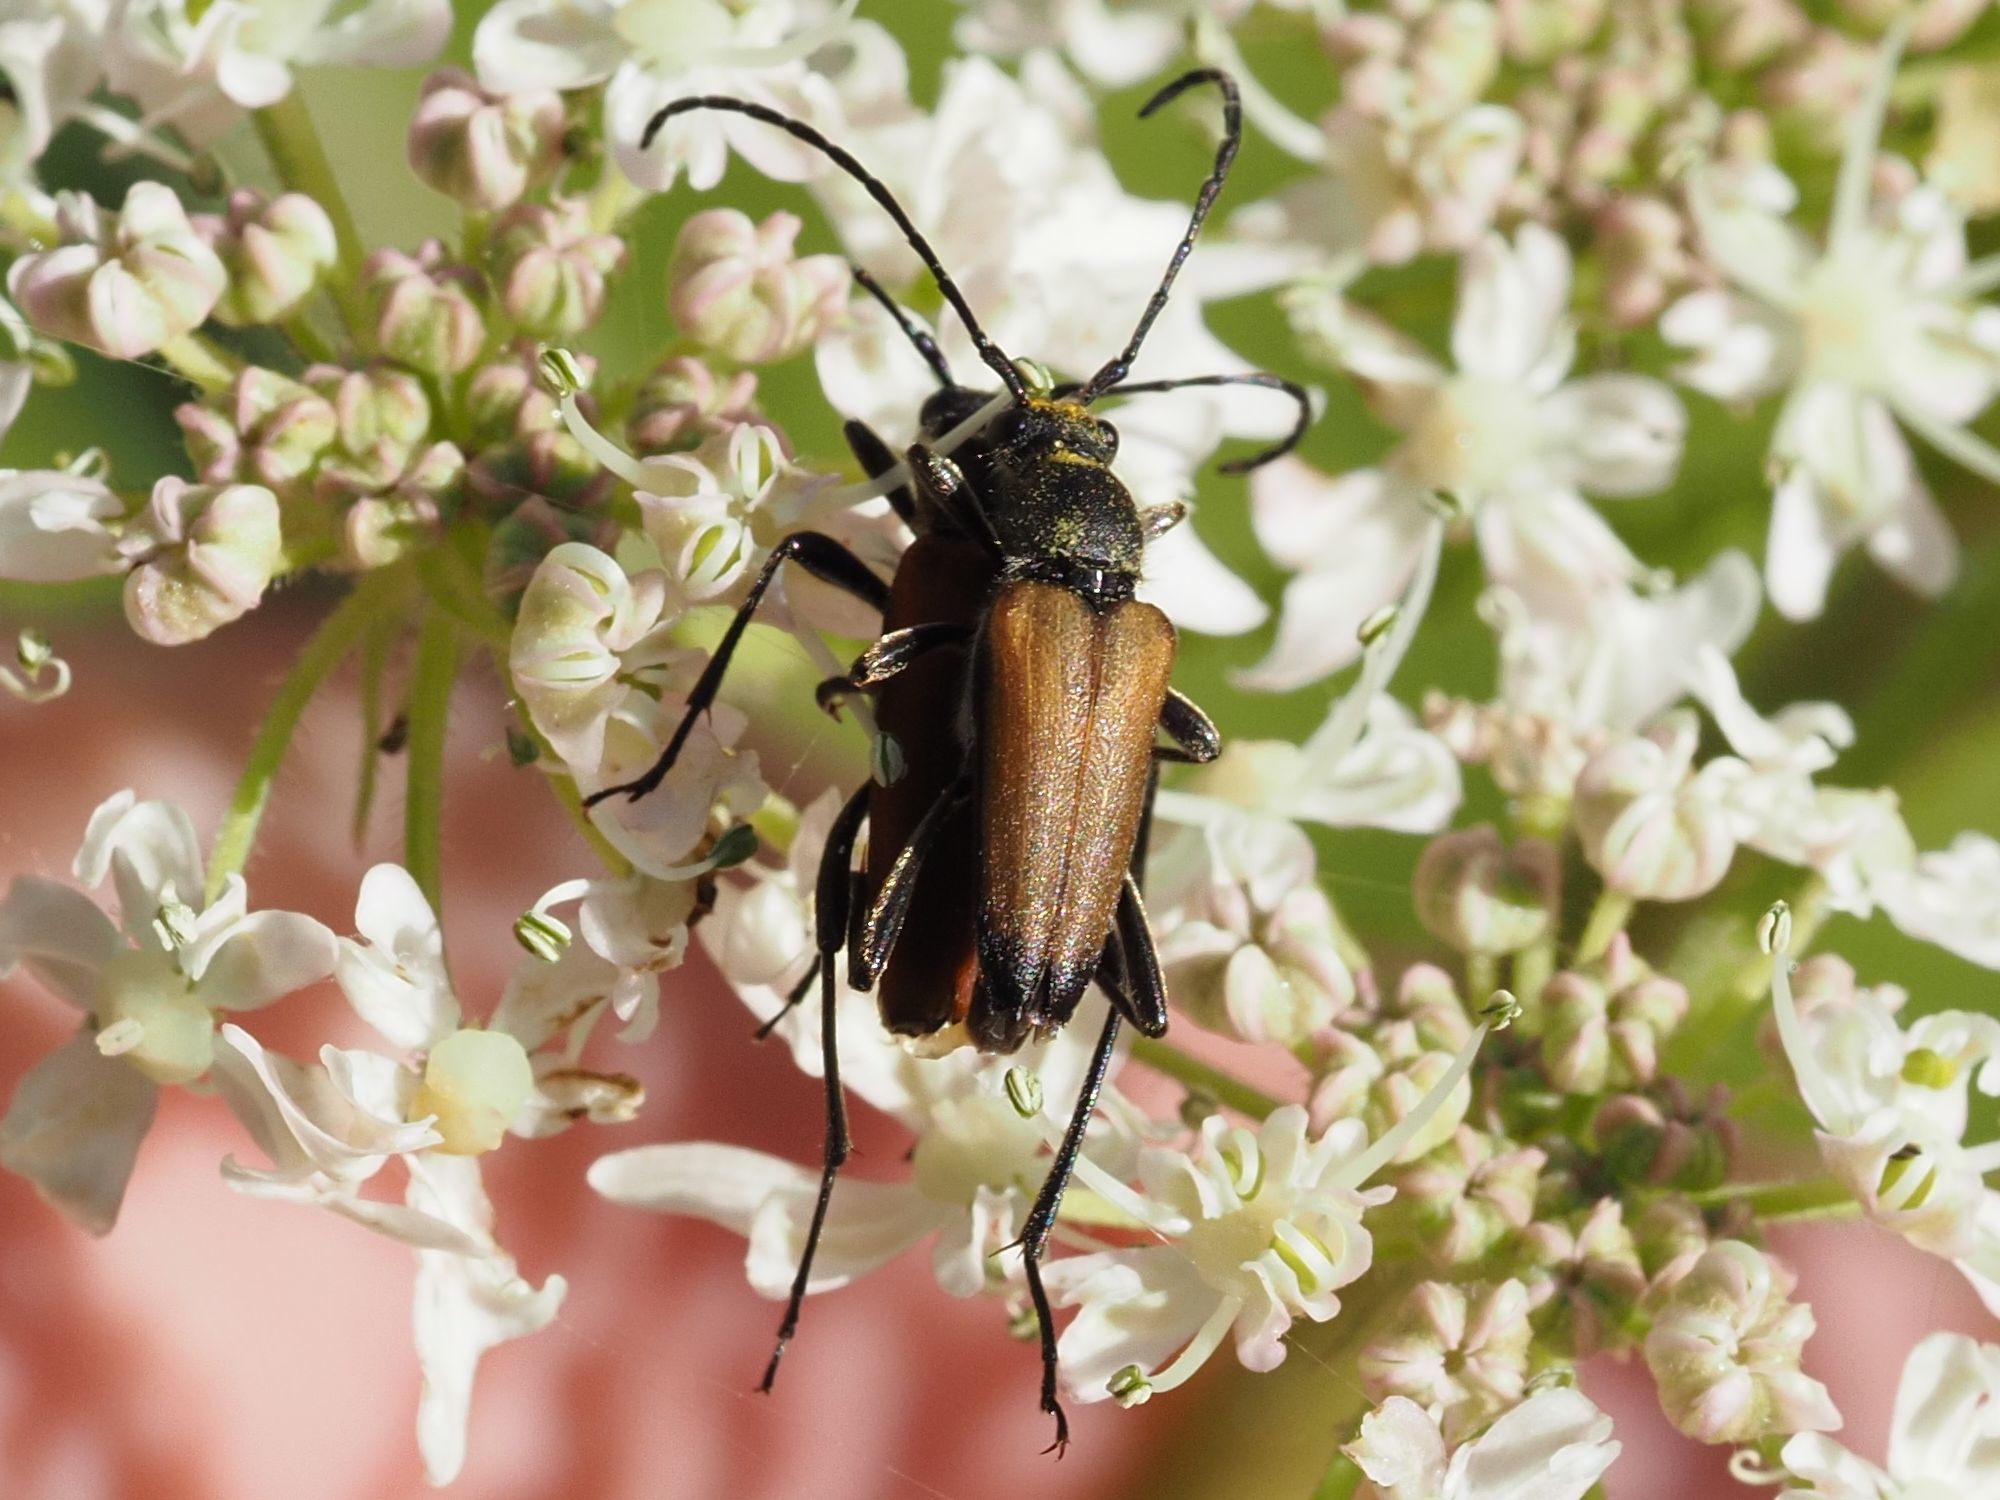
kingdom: Animalia
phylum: Arthropoda
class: Insecta
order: Coleoptera
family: Cerambycidae
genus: Anastrangalia
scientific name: Anastrangalia sanguinolenta
